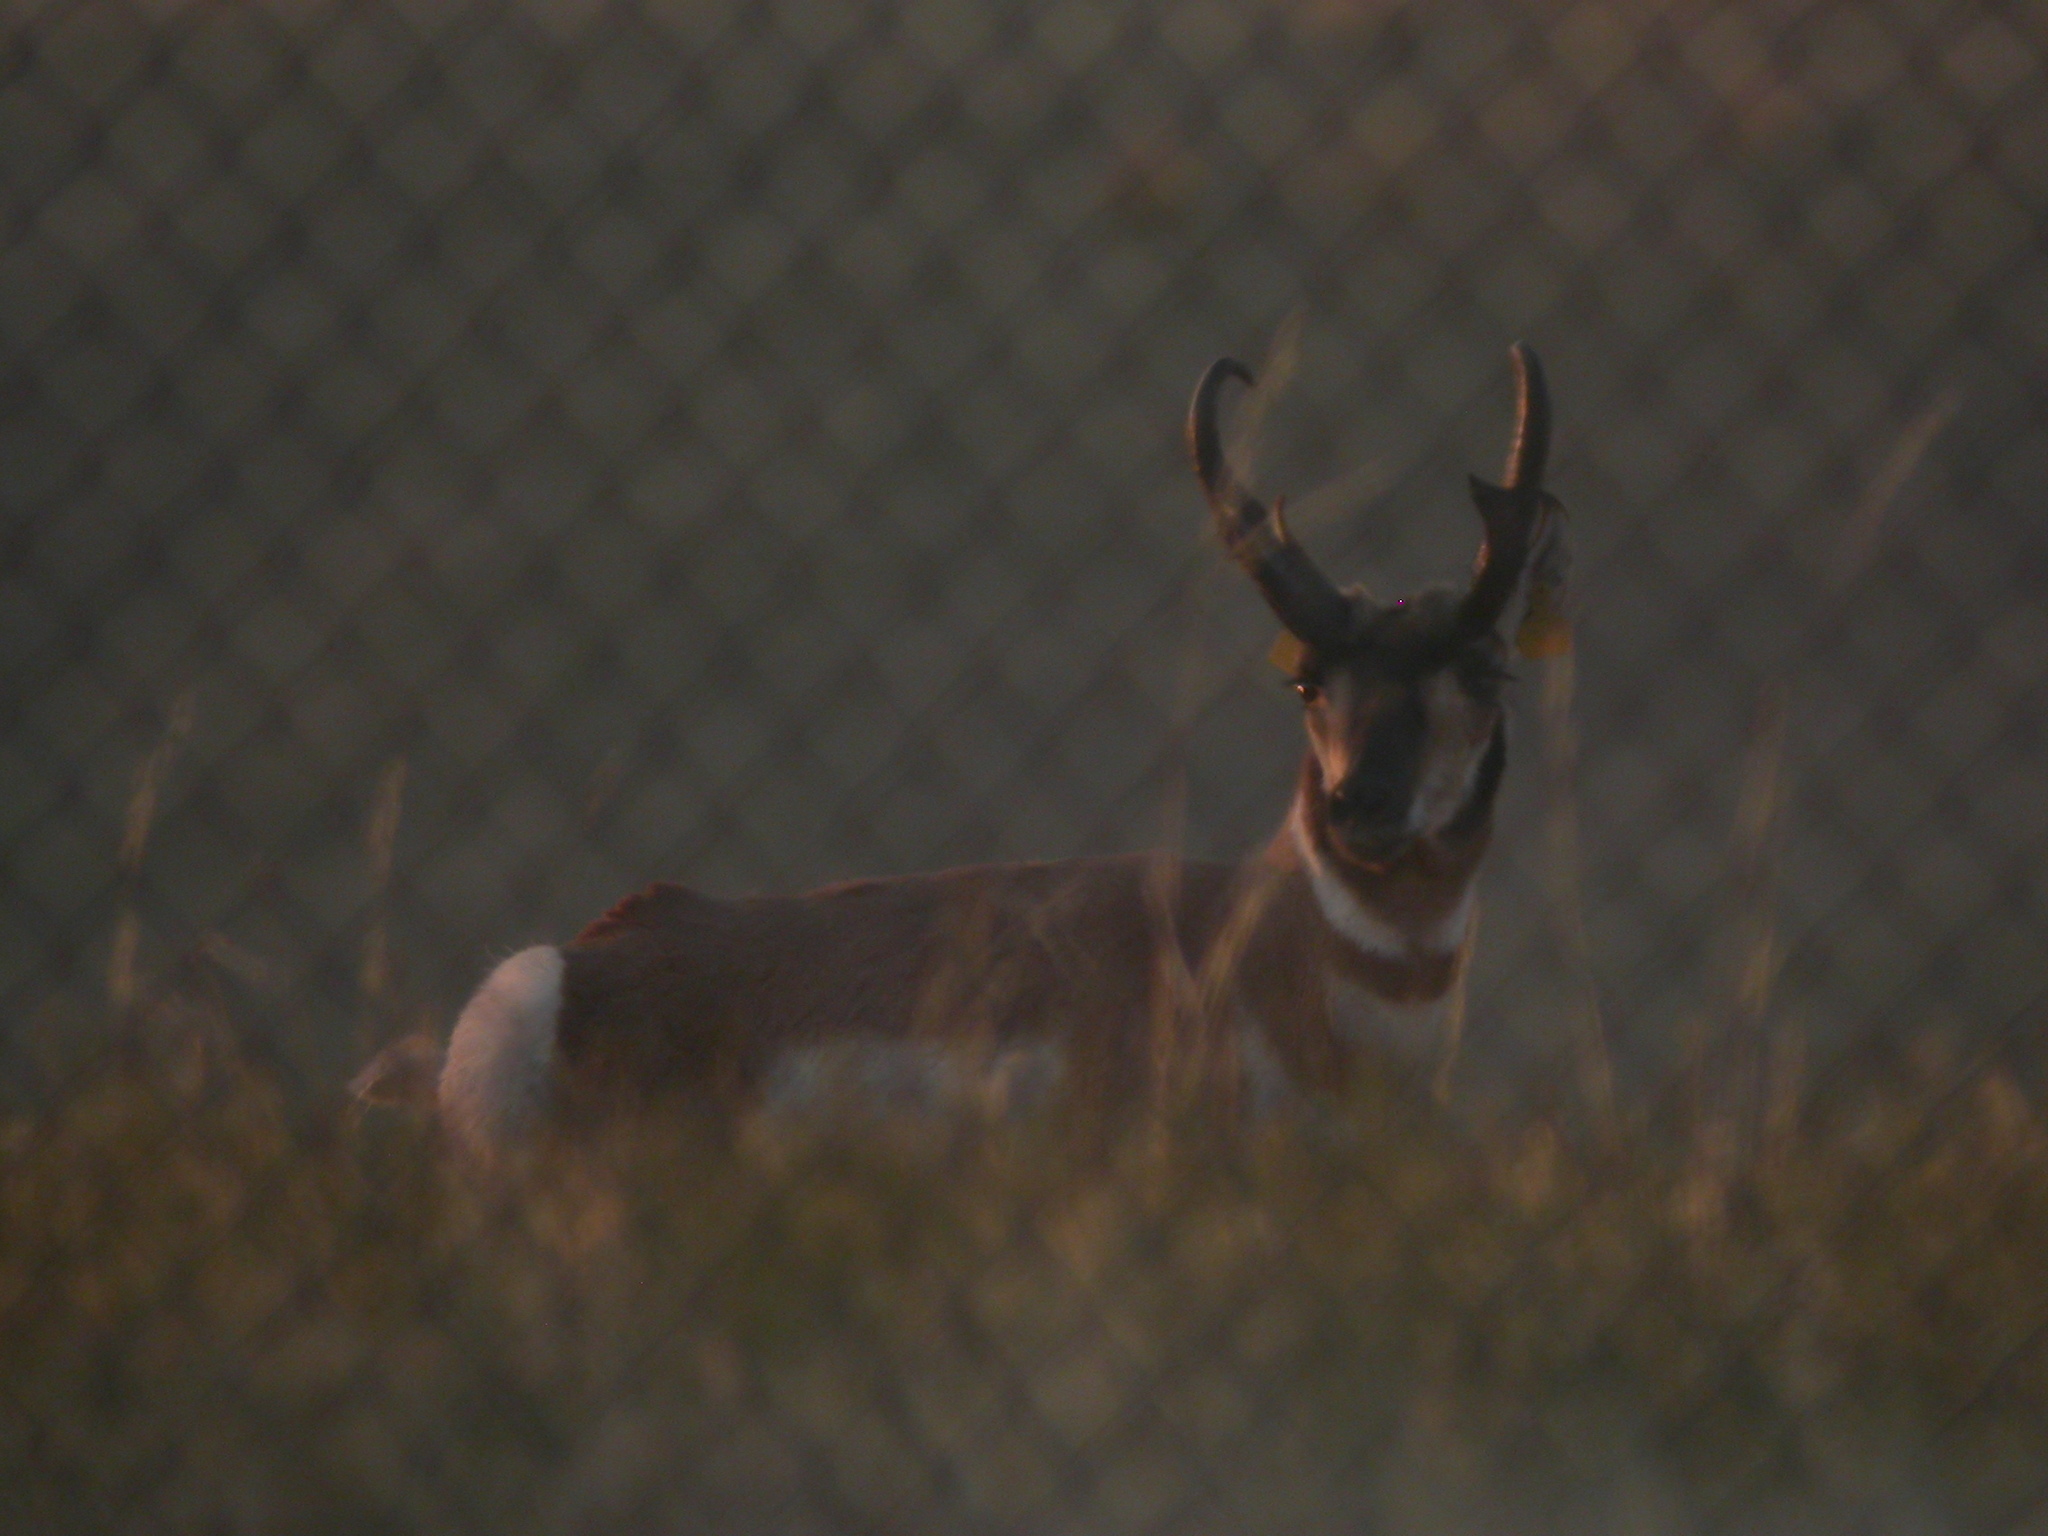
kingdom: Animalia
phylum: Chordata
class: Mammalia
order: Artiodactyla
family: Antilocapridae
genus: Antilocapra
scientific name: Antilocapra americana
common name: Pronghorn
